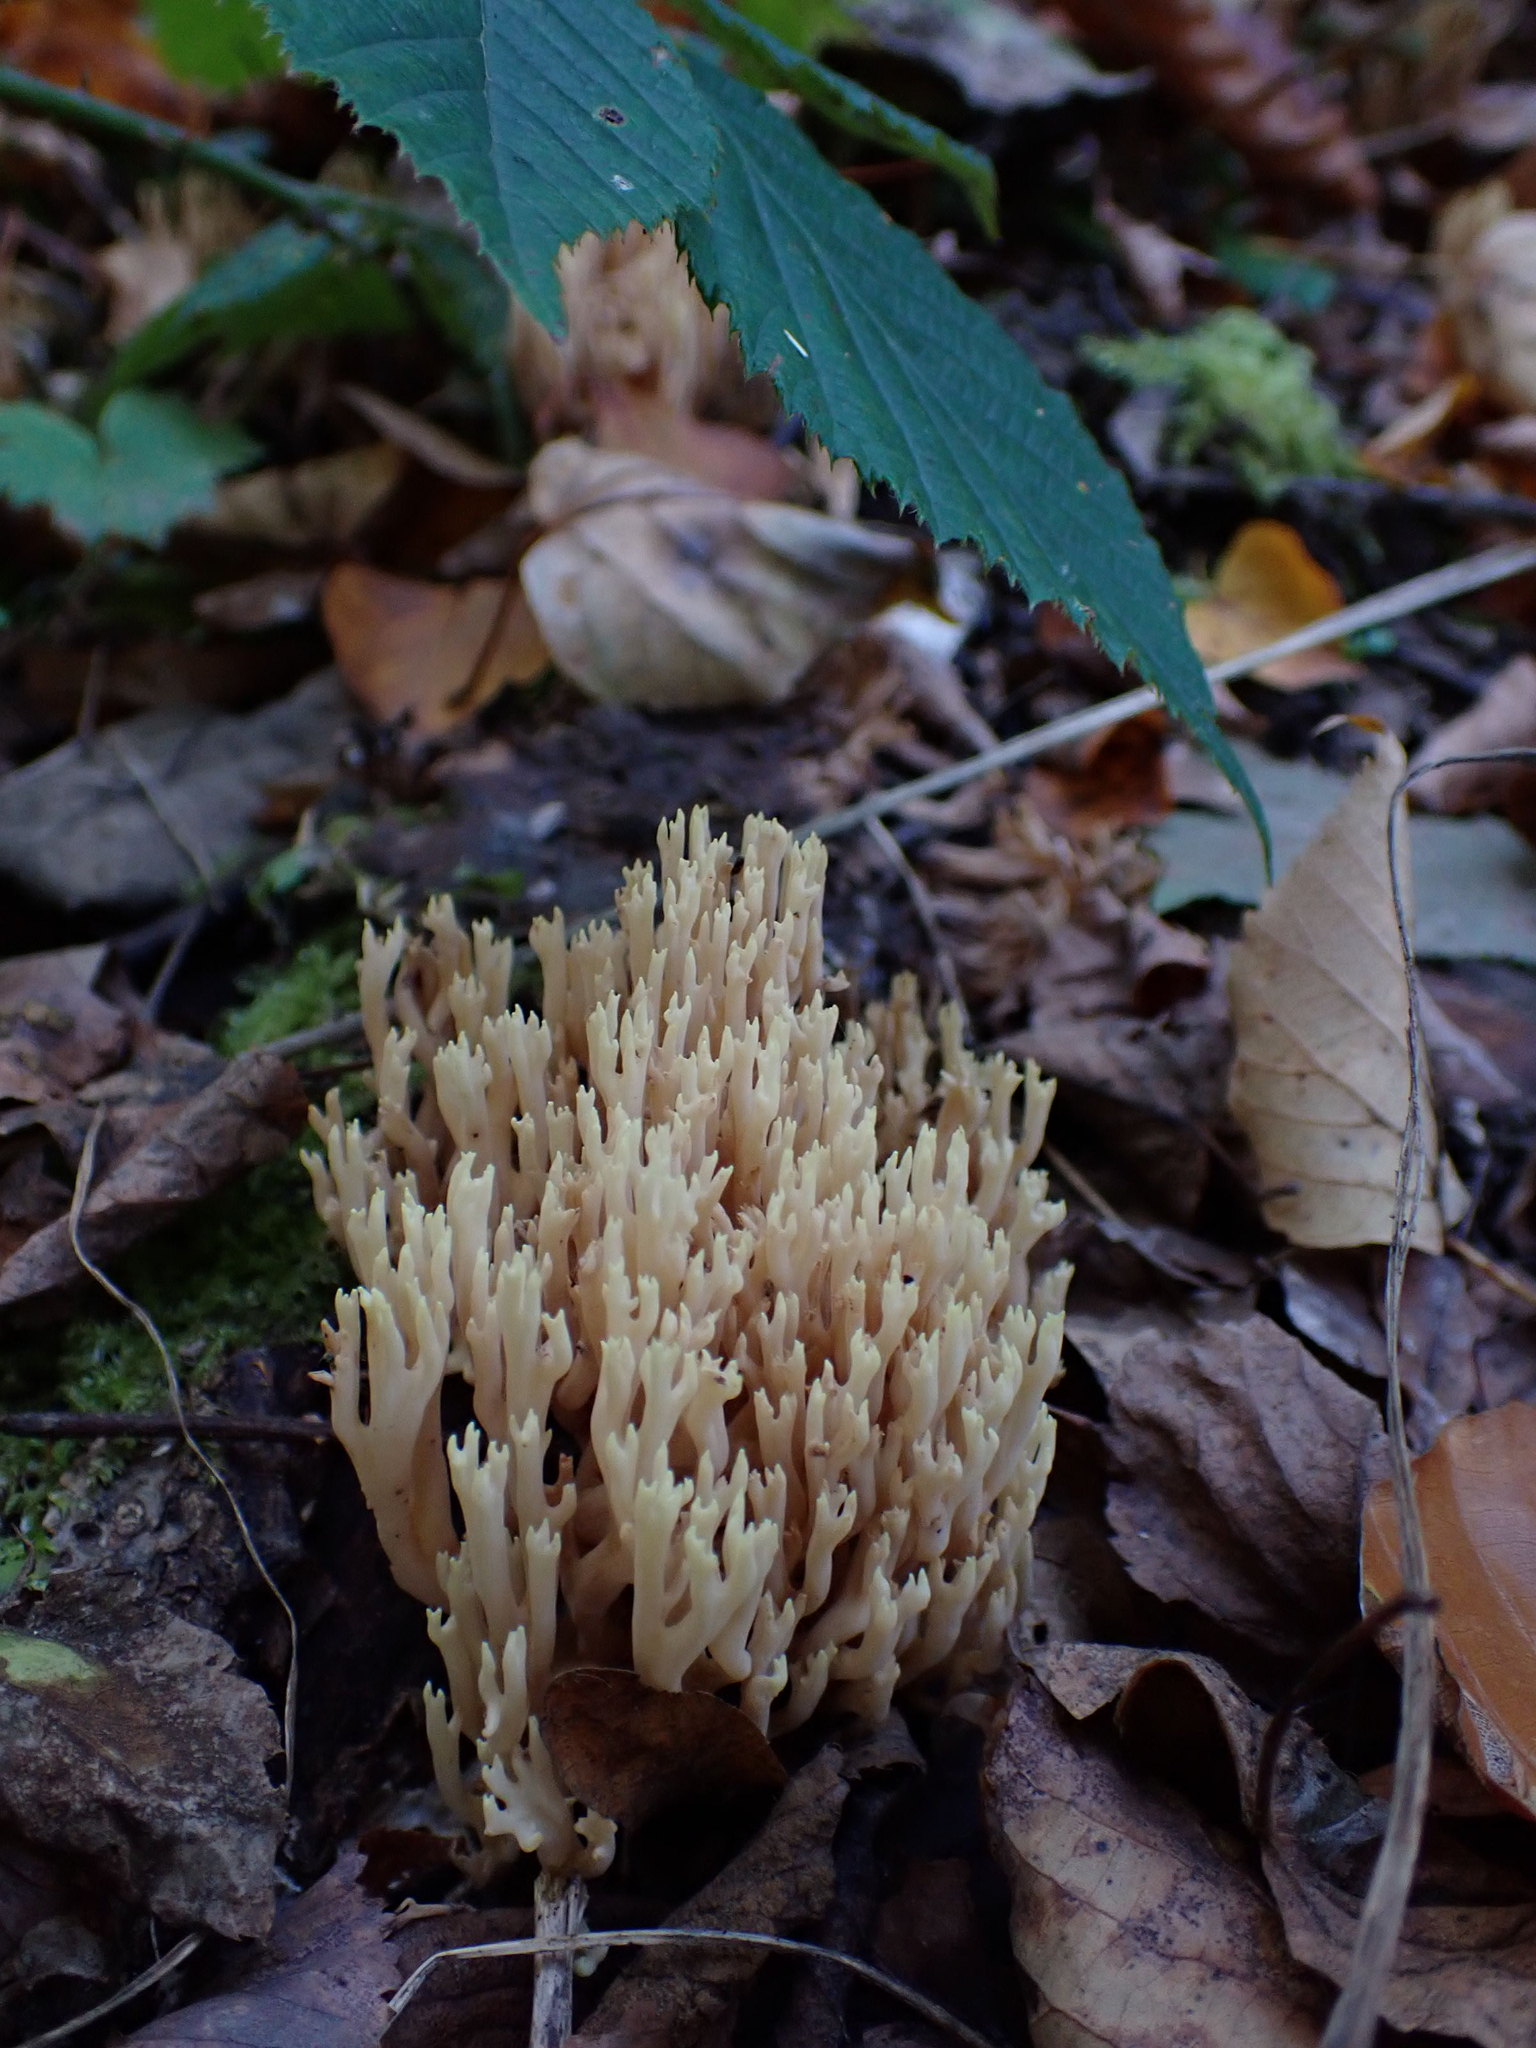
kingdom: Fungi
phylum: Basidiomycota
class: Agaricomycetes
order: Gomphales
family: Gomphaceae
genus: Ramaria
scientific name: Ramaria stricta
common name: Upright coral
